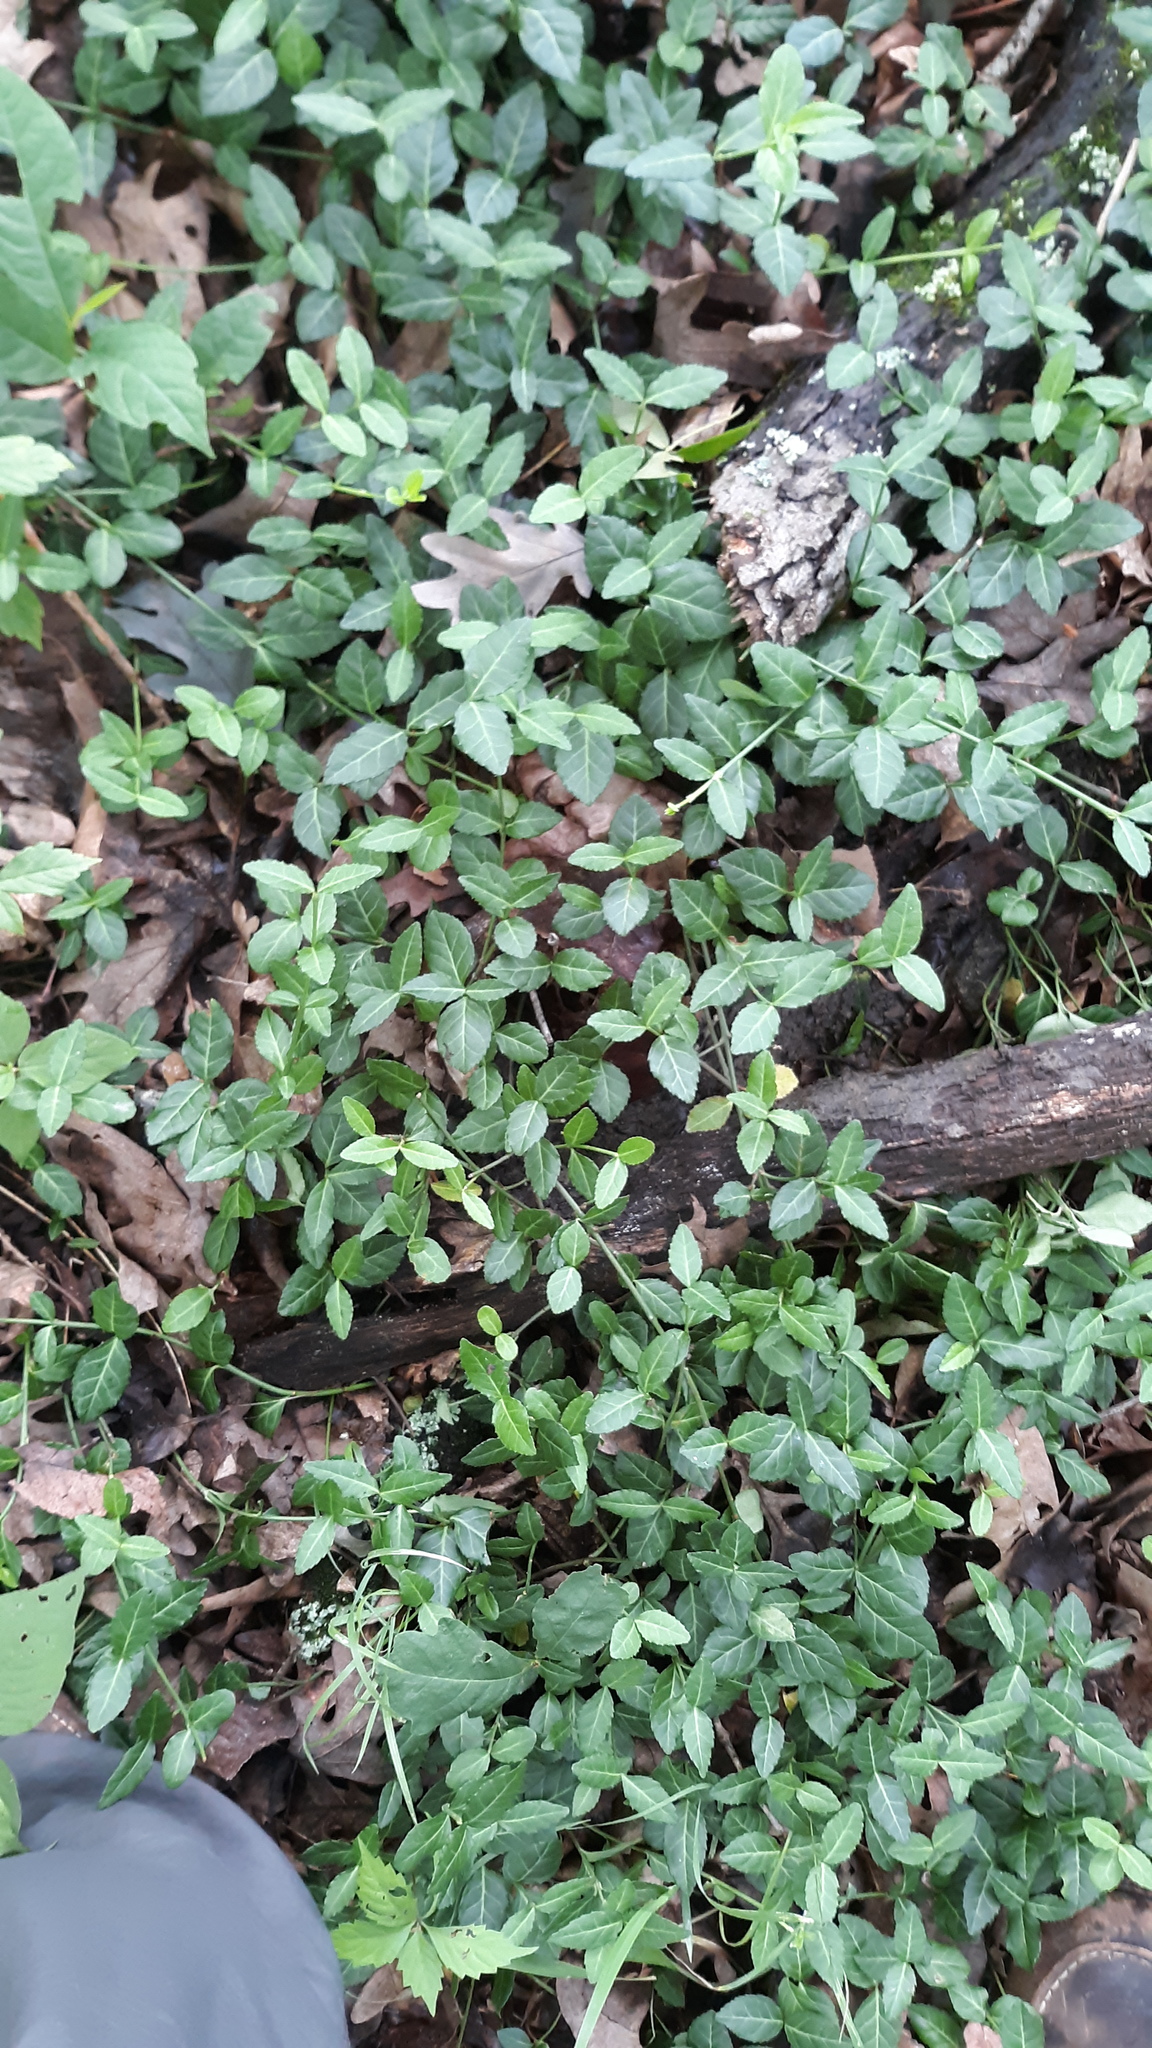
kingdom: Plantae
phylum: Tracheophyta
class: Magnoliopsida
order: Celastrales
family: Celastraceae
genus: Euonymus
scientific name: Euonymus fortunei
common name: Climbing euonymus
